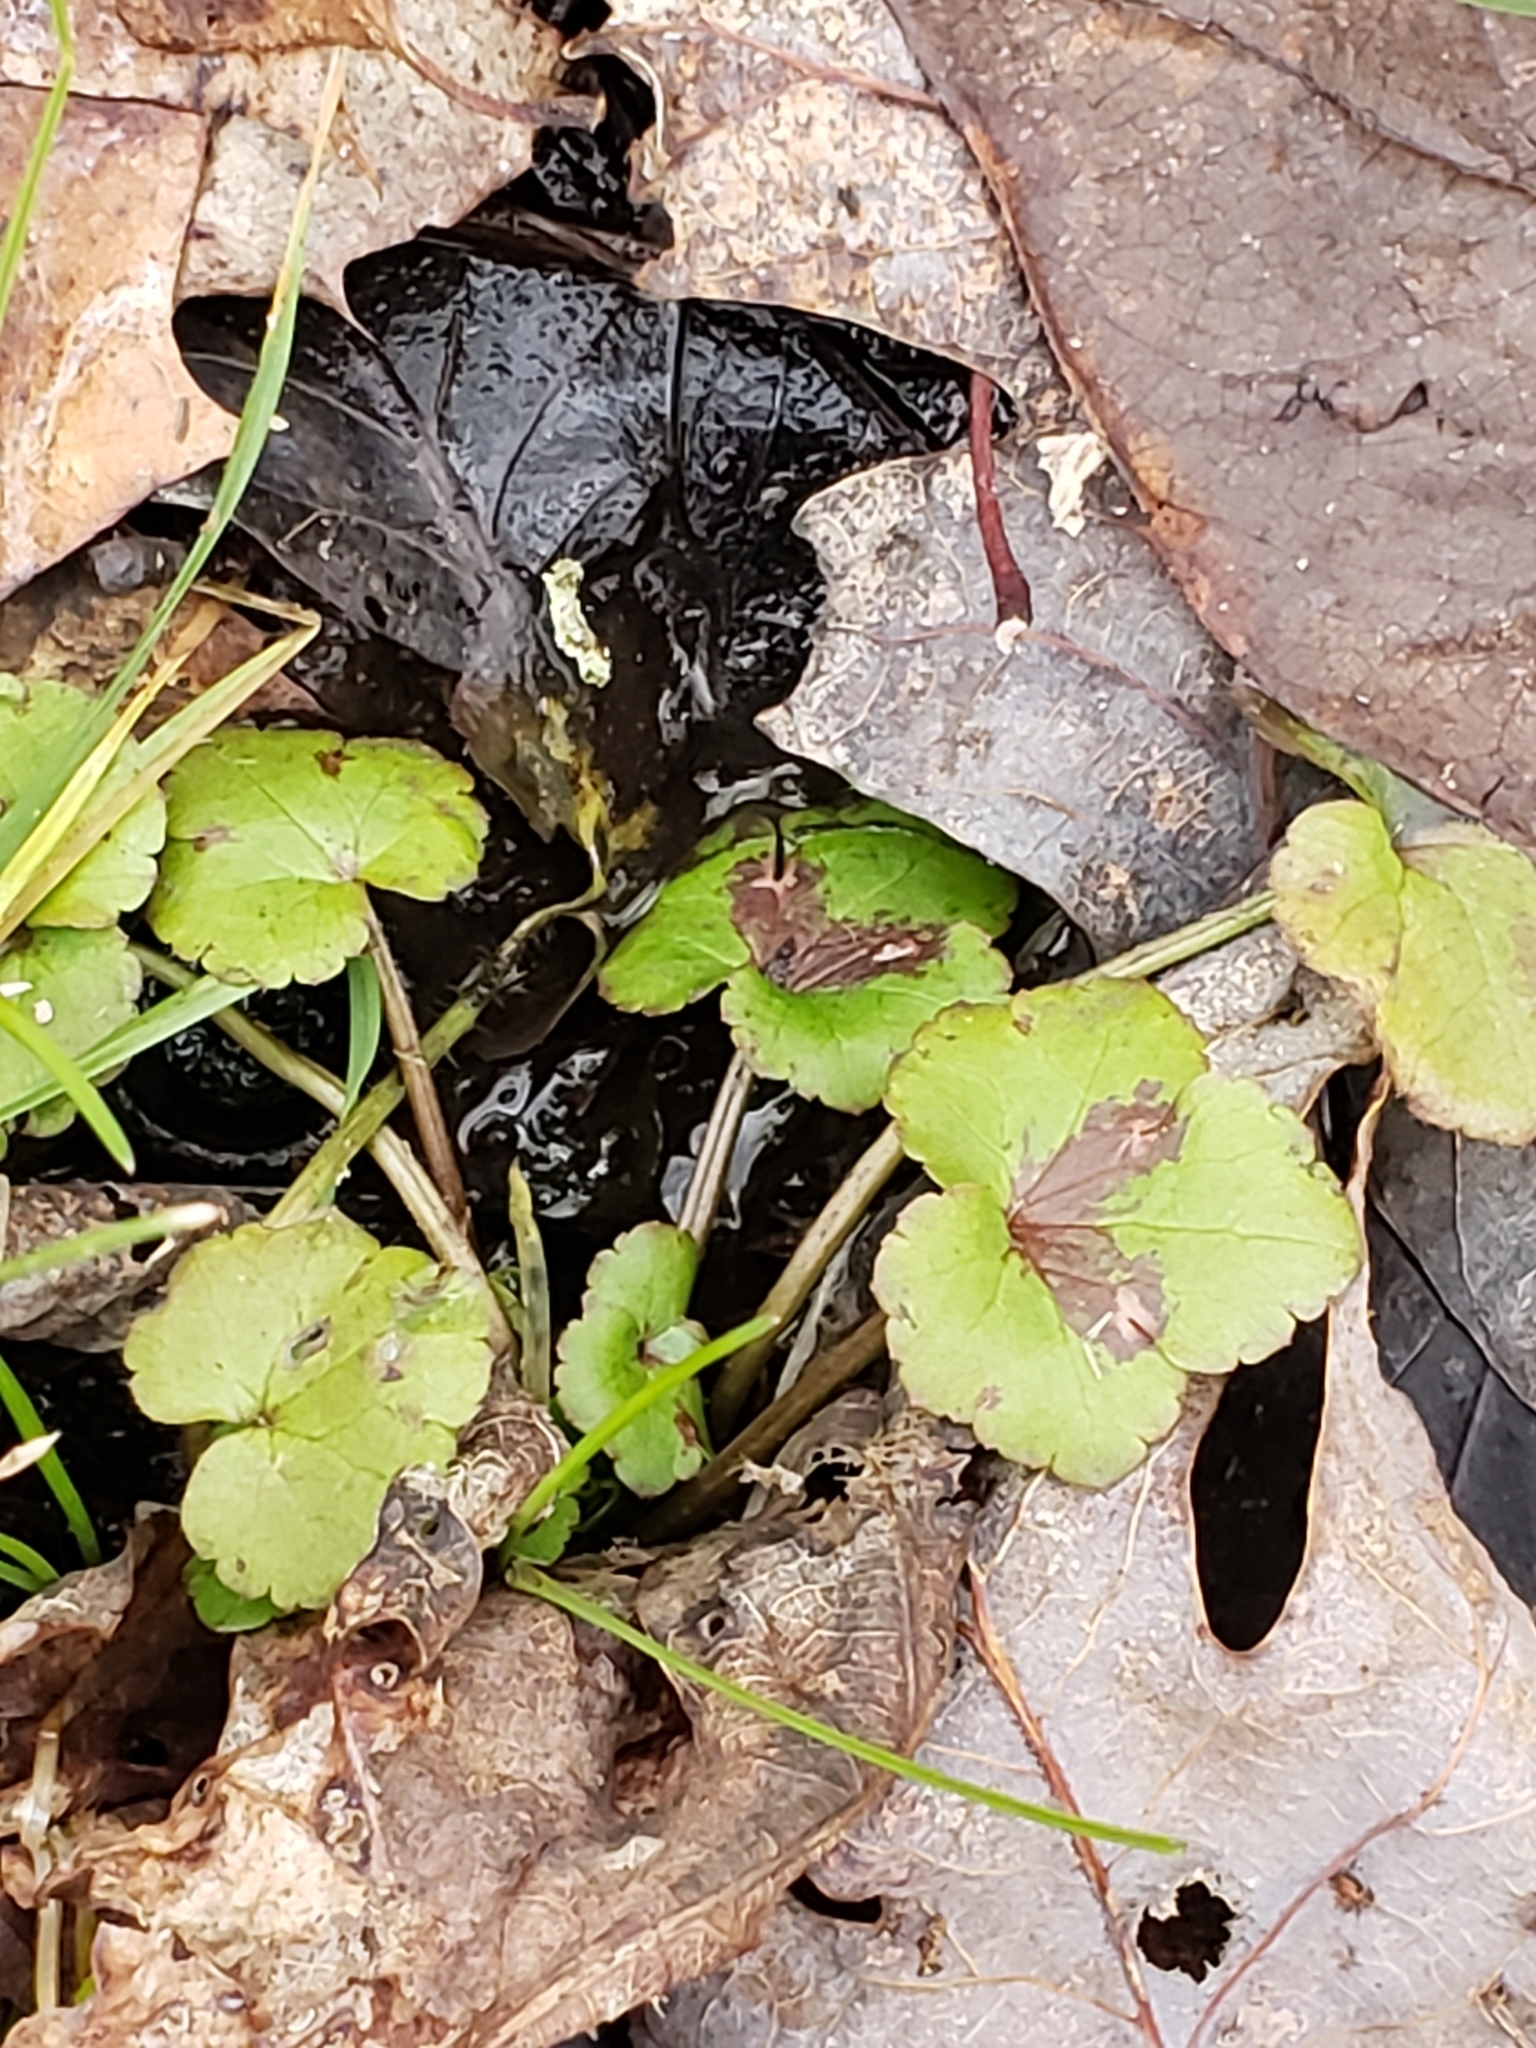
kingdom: Plantae
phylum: Tracheophyta
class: Magnoliopsida
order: Ranunculales
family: Ranunculaceae
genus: Ranunculus
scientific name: Ranunculus recurvatus
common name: Blisterwort
